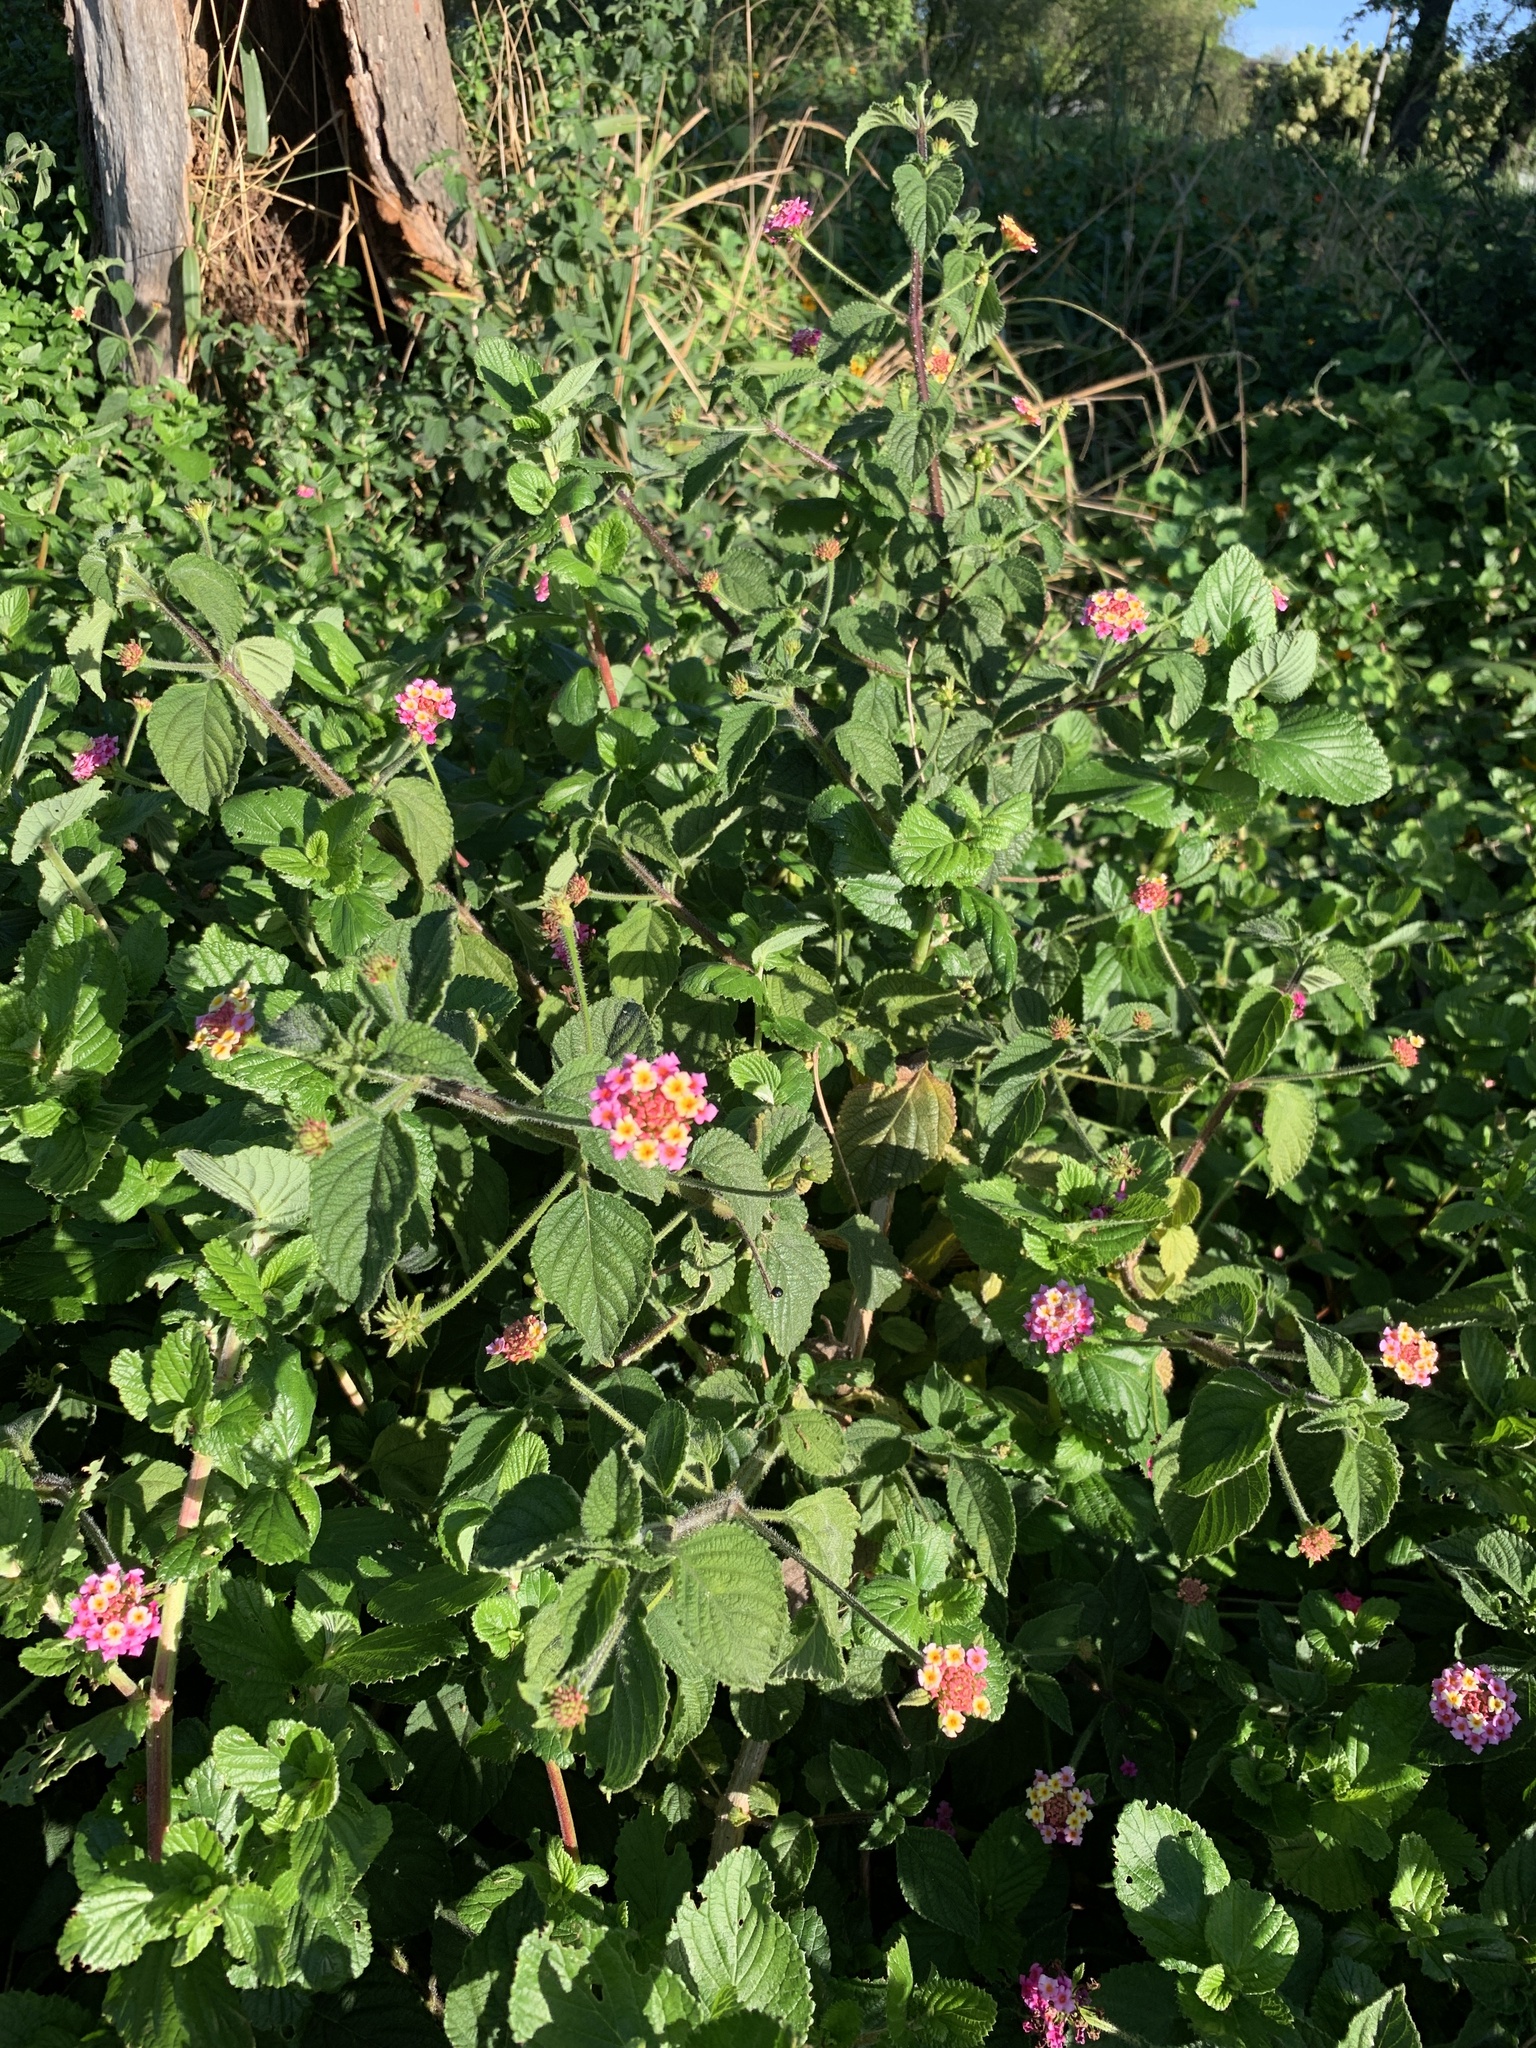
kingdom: Plantae
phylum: Tracheophyta
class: Magnoliopsida
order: Lamiales
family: Verbenaceae
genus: Lantana
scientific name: Lantana camara
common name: Lantana
